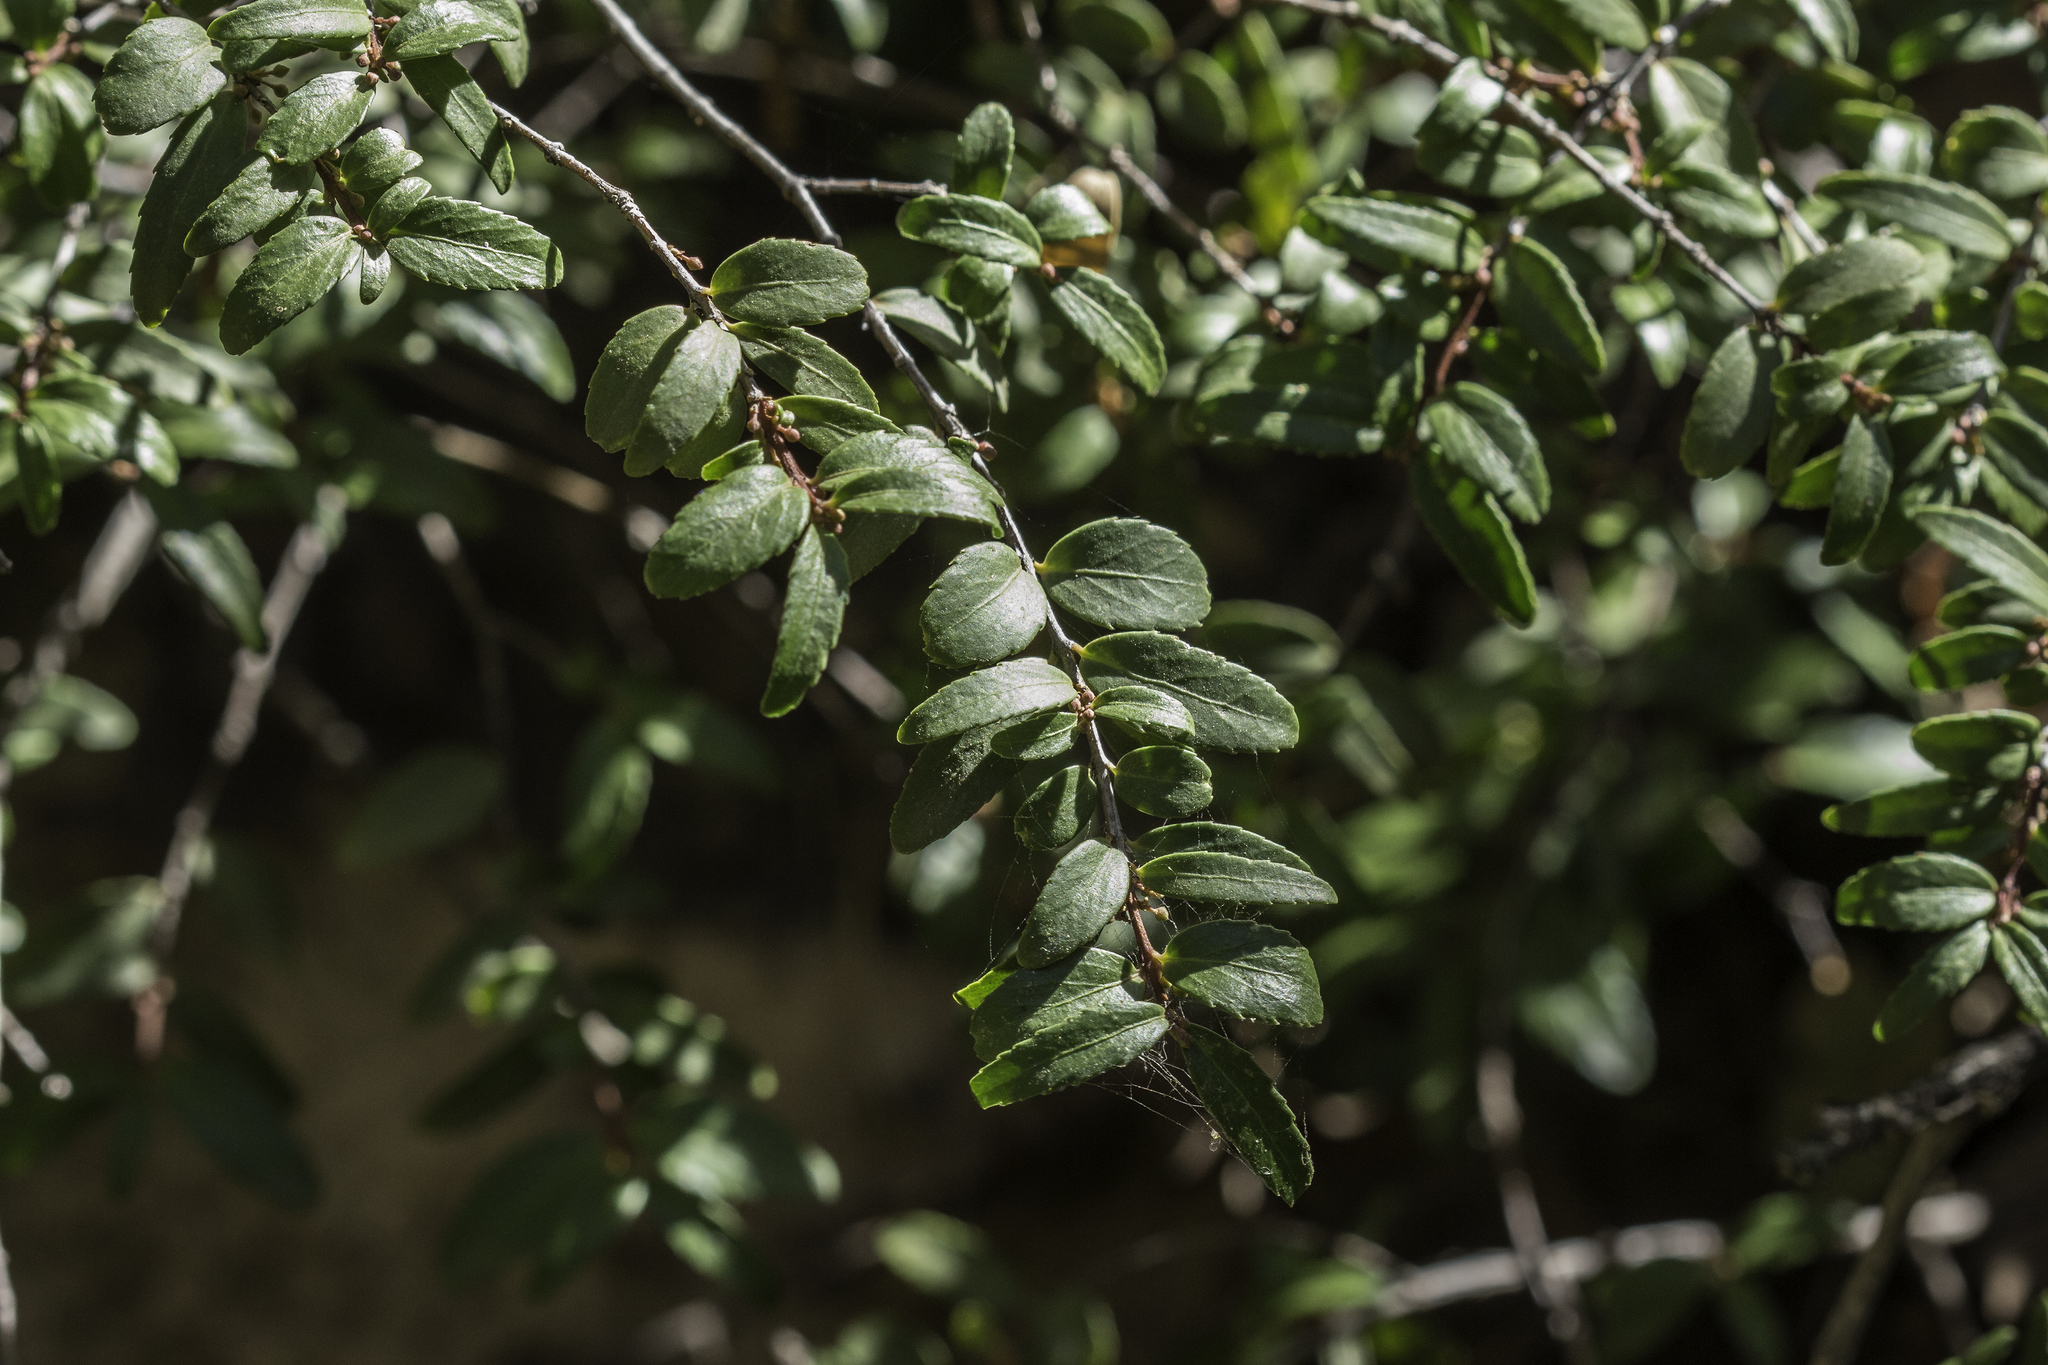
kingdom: Plantae
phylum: Tracheophyta
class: Magnoliopsida
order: Celastrales
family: Celastraceae
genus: Paxistima
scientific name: Paxistima myrsinites
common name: Mountain-lover
